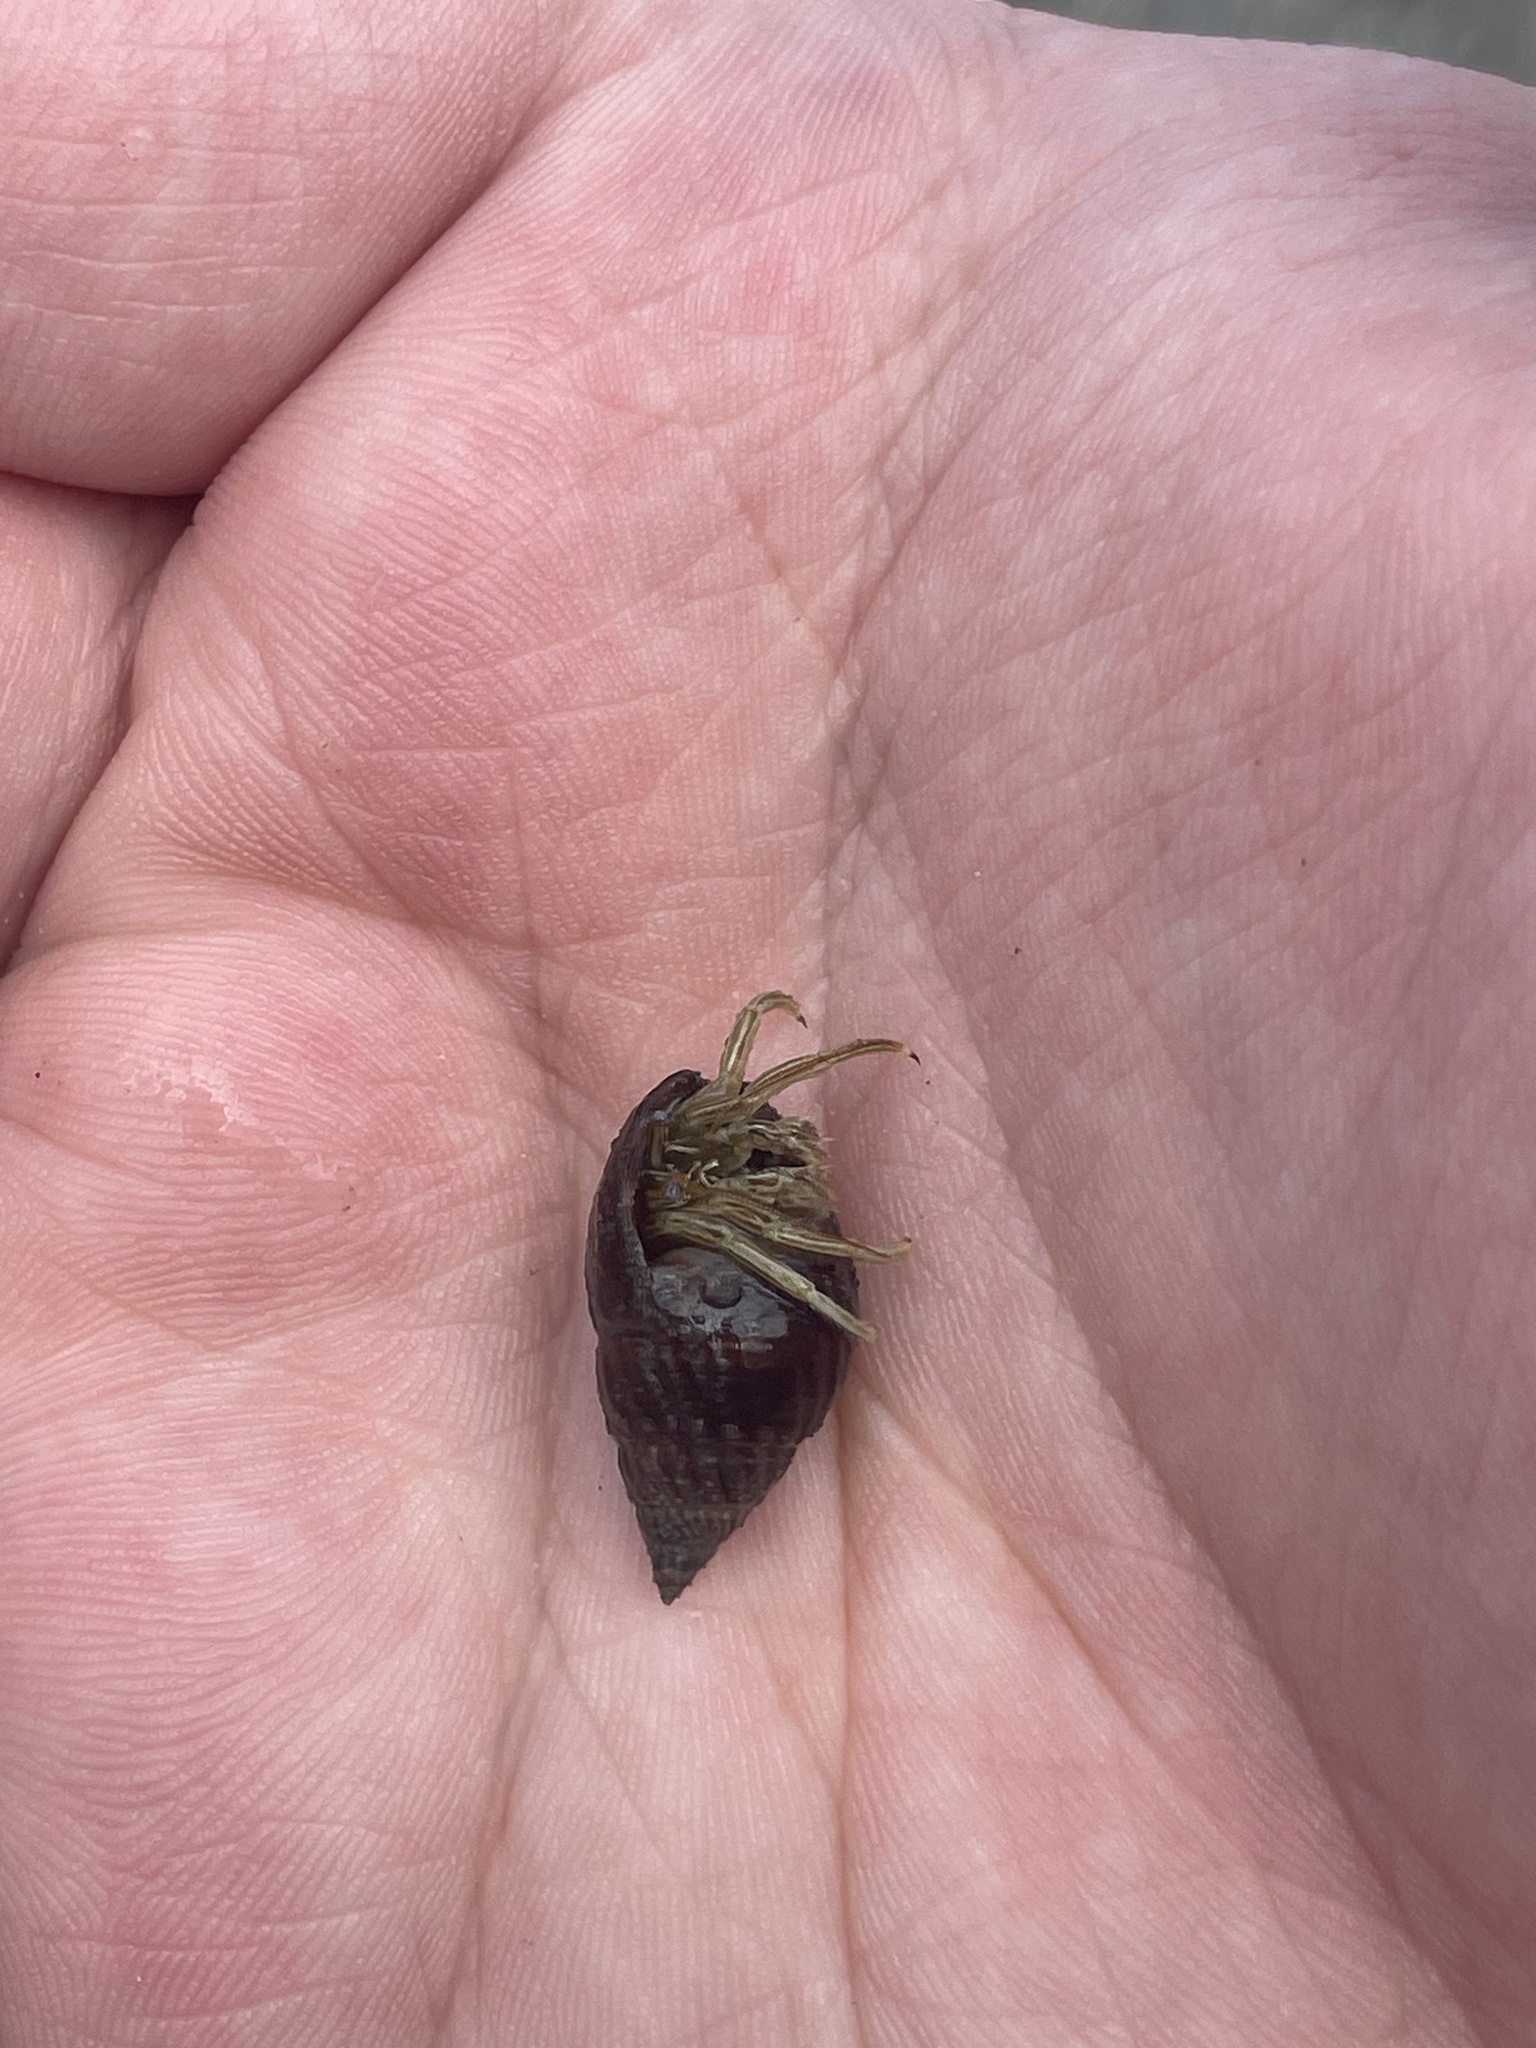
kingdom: Animalia
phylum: Arthropoda
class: Malacostraca
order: Decapoda
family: Diogenidae
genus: Clibanarius
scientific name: Clibanarius vittatus
